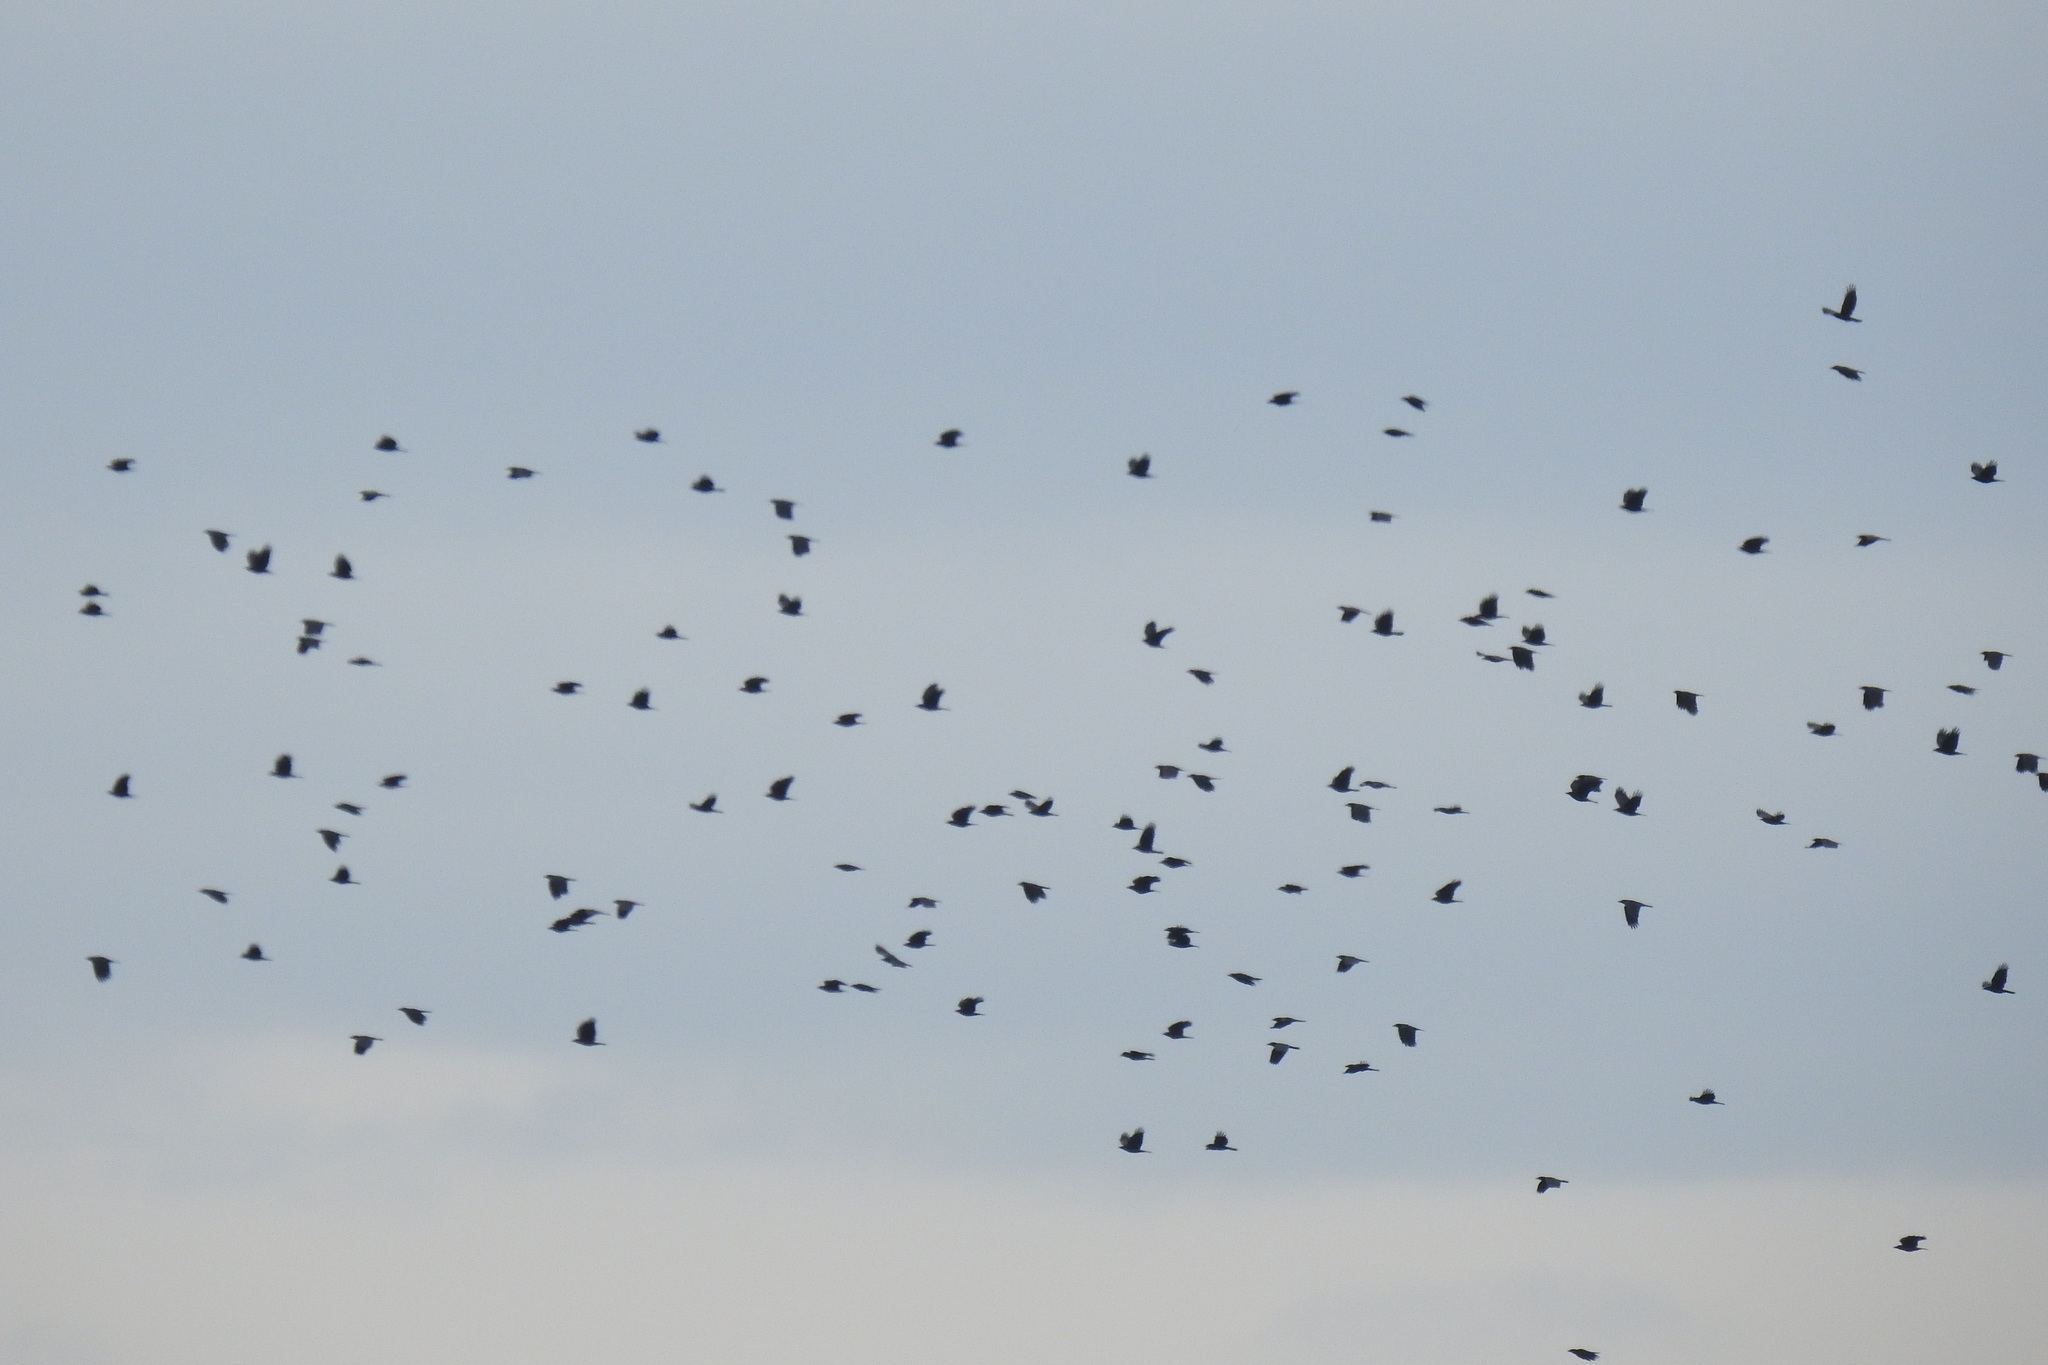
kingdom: Animalia
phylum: Chordata
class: Aves
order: Passeriformes
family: Corvidae
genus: Corvus
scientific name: Corvus brachyrhynchos
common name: American crow
